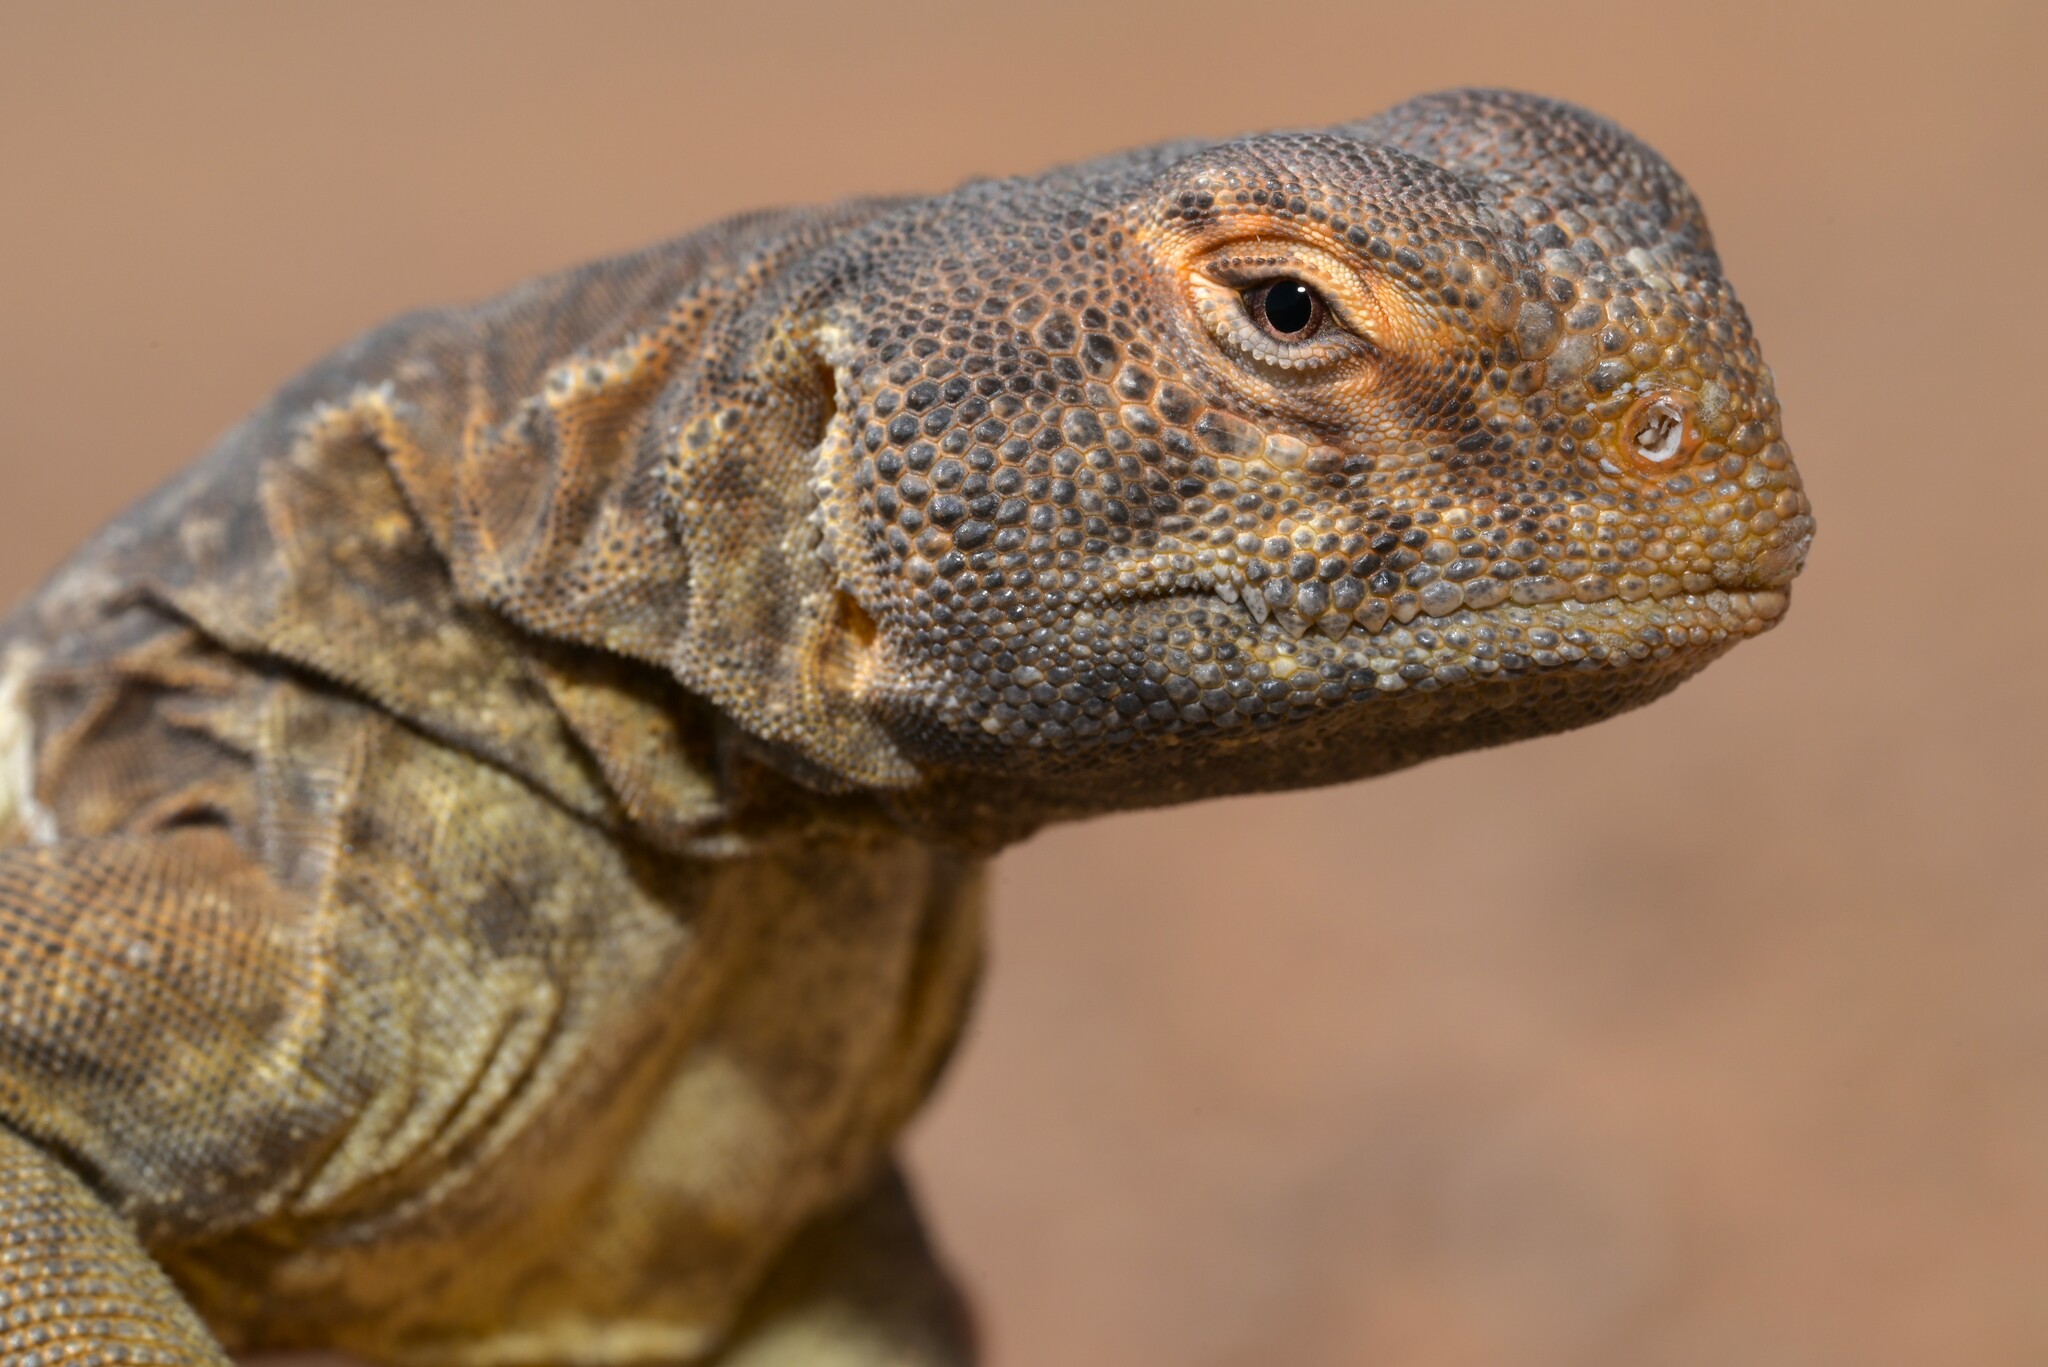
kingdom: Animalia
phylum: Chordata
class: Squamata
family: Agamidae
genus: Uromastyx
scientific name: Uromastyx aegyptia
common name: Egyptian mastigure
